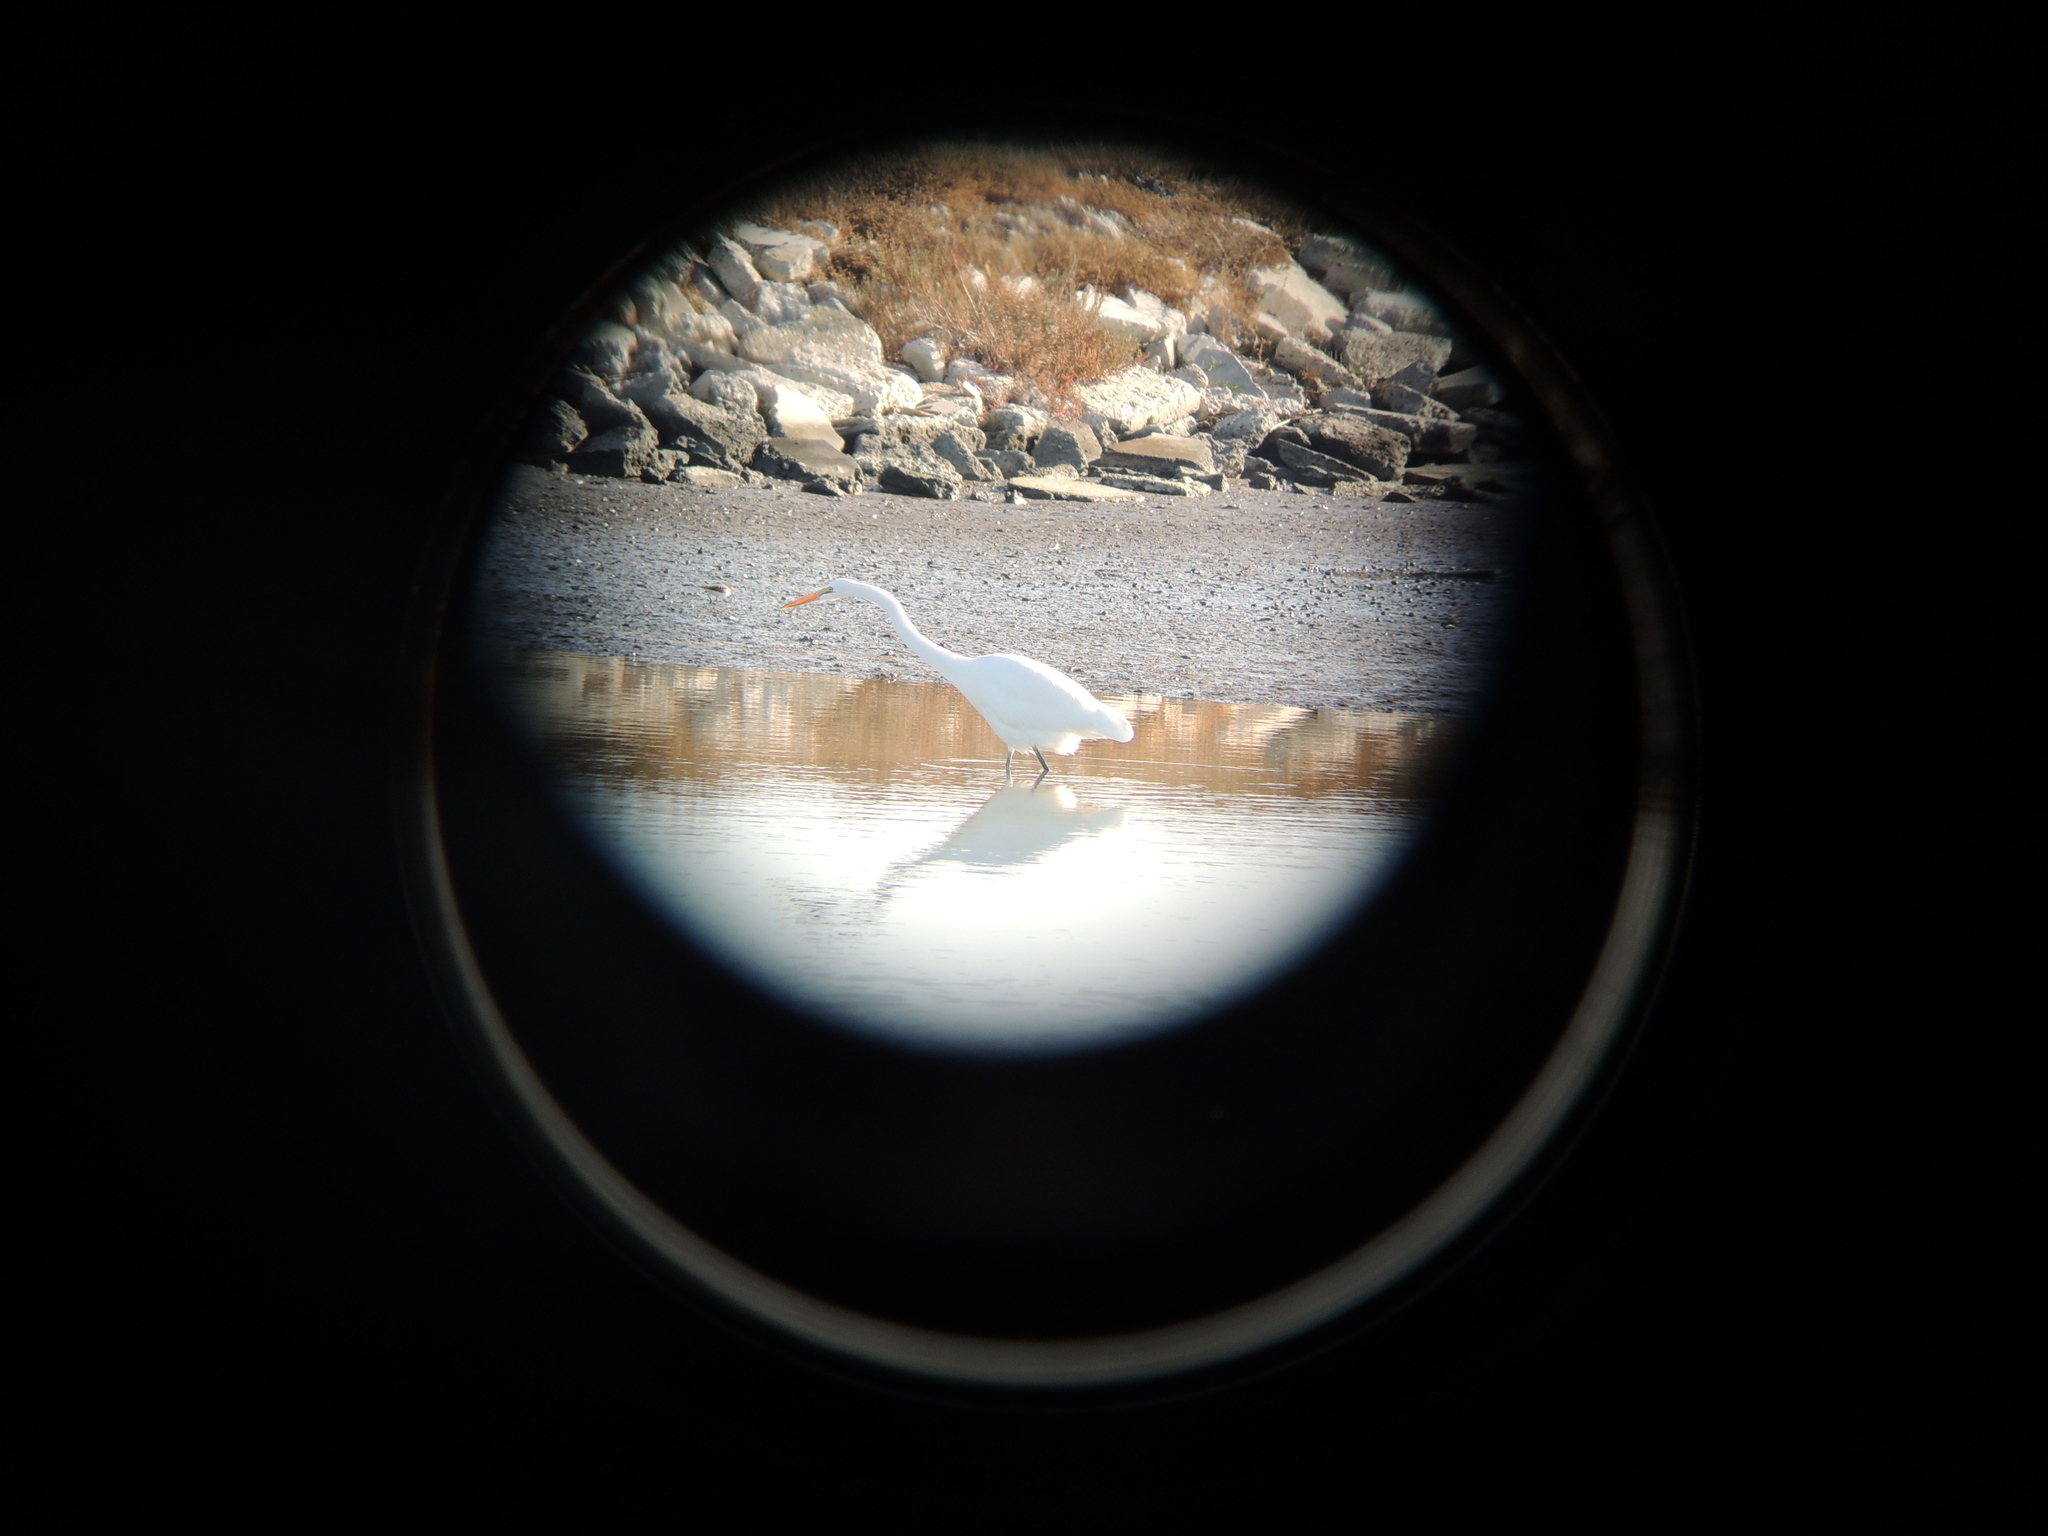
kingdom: Animalia
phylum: Chordata
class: Aves
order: Pelecaniformes
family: Ardeidae
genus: Ardea
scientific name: Ardea alba
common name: Great egret
